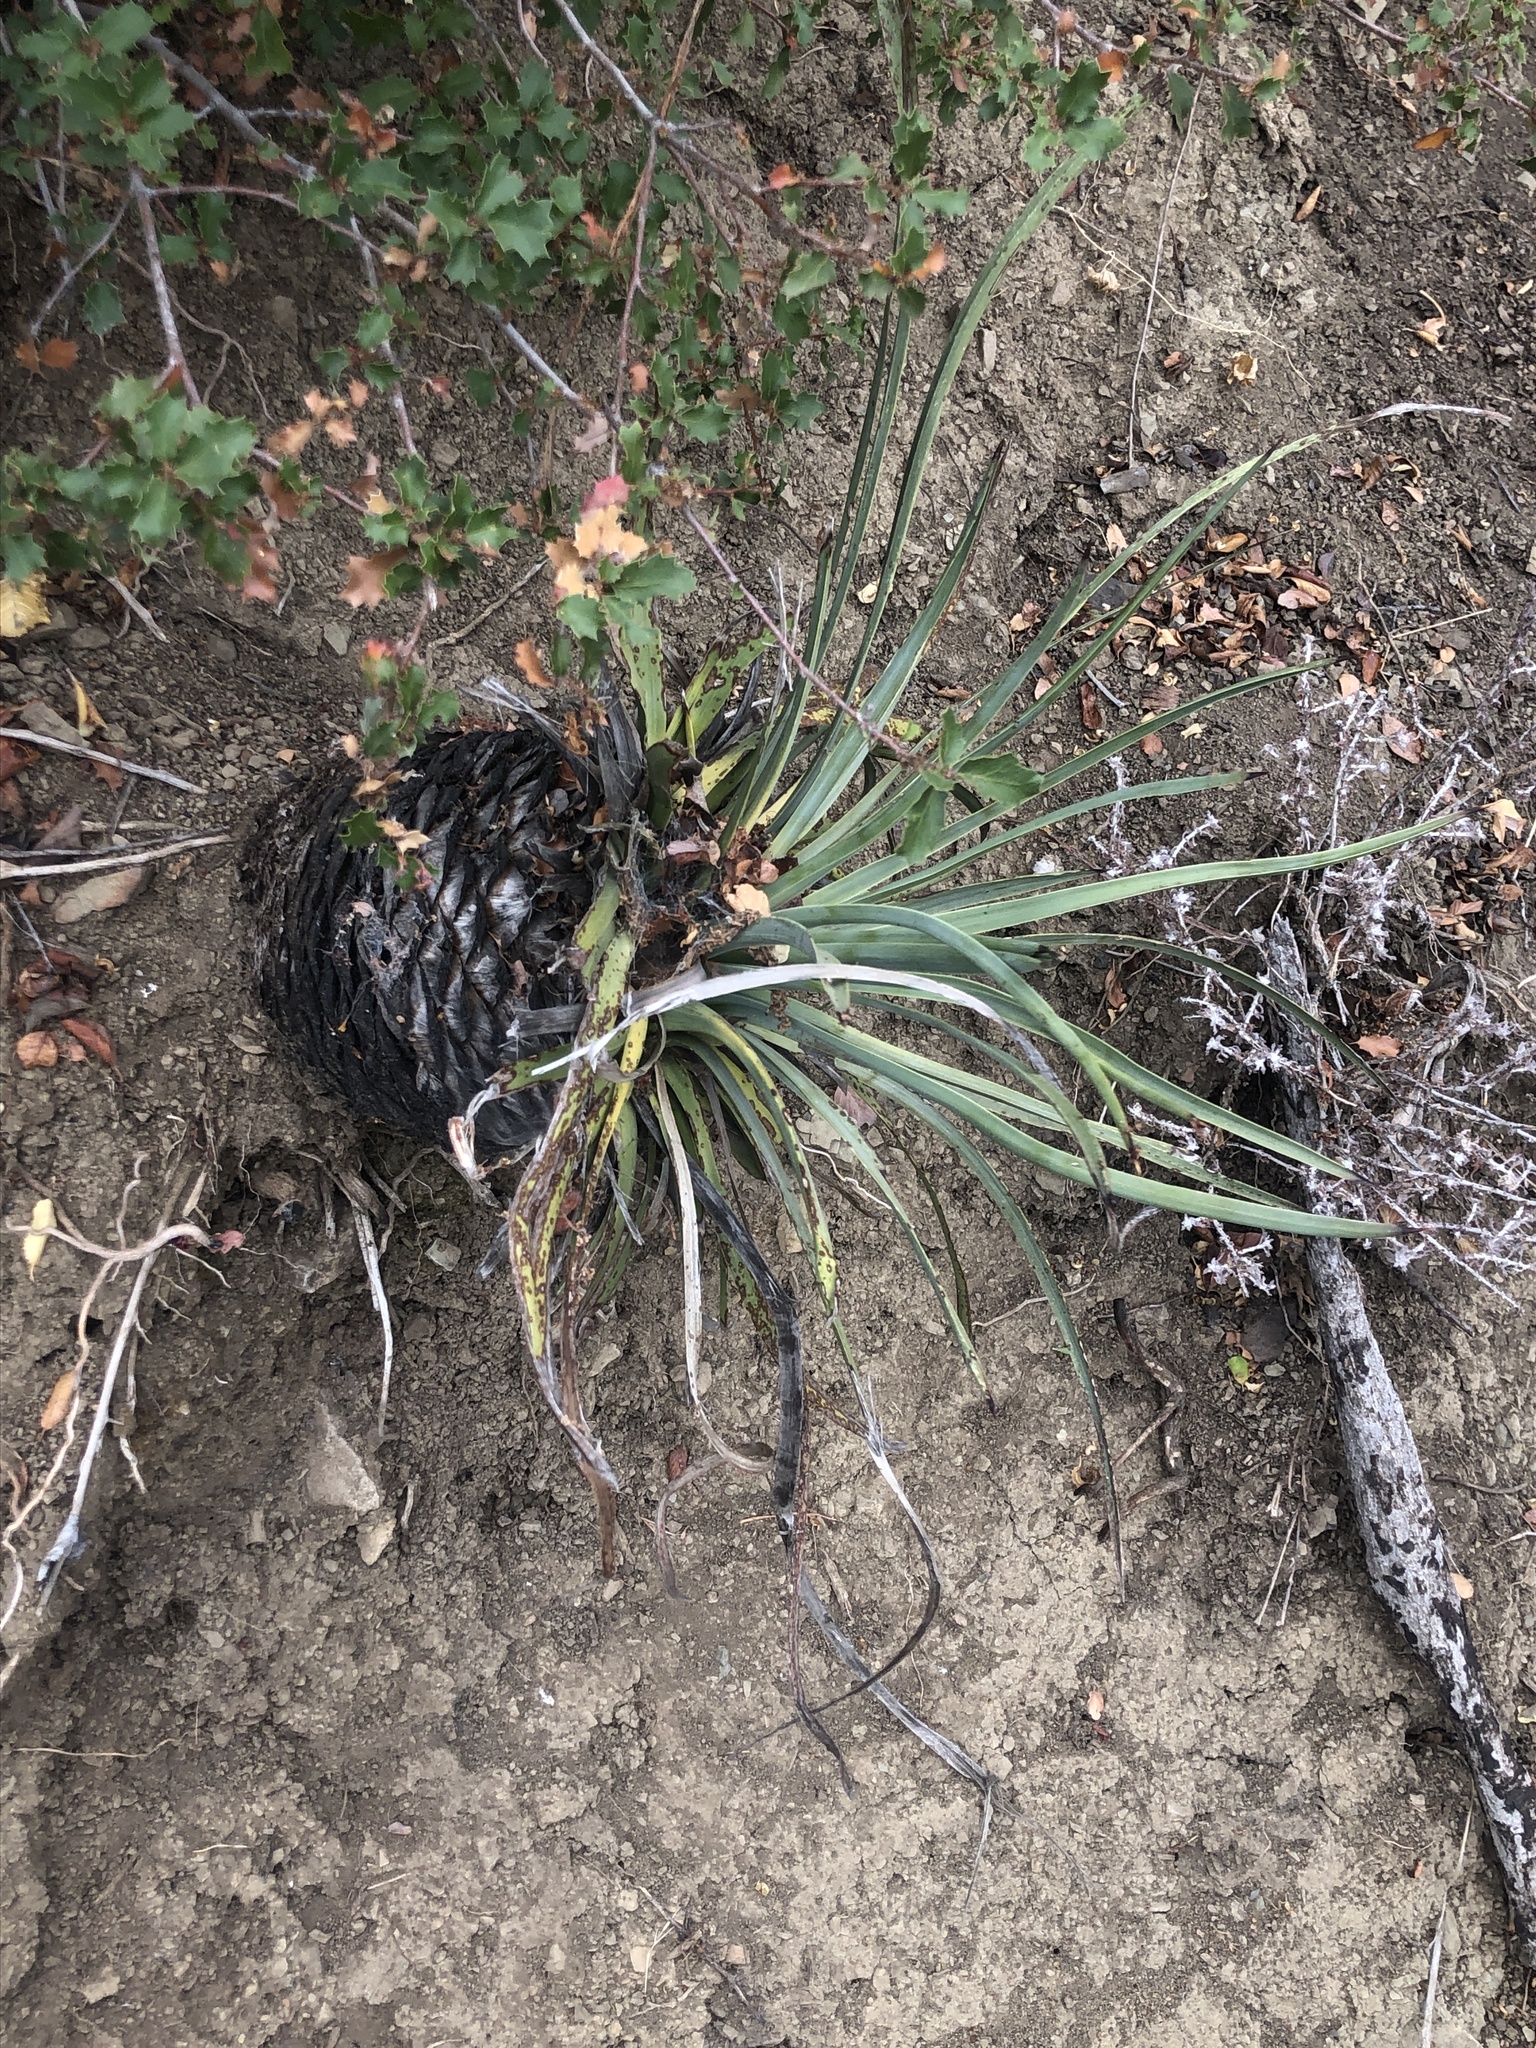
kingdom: Plantae
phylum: Tracheophyta
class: Liliopsida
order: Asparagales
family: Asparagaceae
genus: Hesperoyucca
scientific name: Hesperoyucca whipplei
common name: Our lord's-candle
